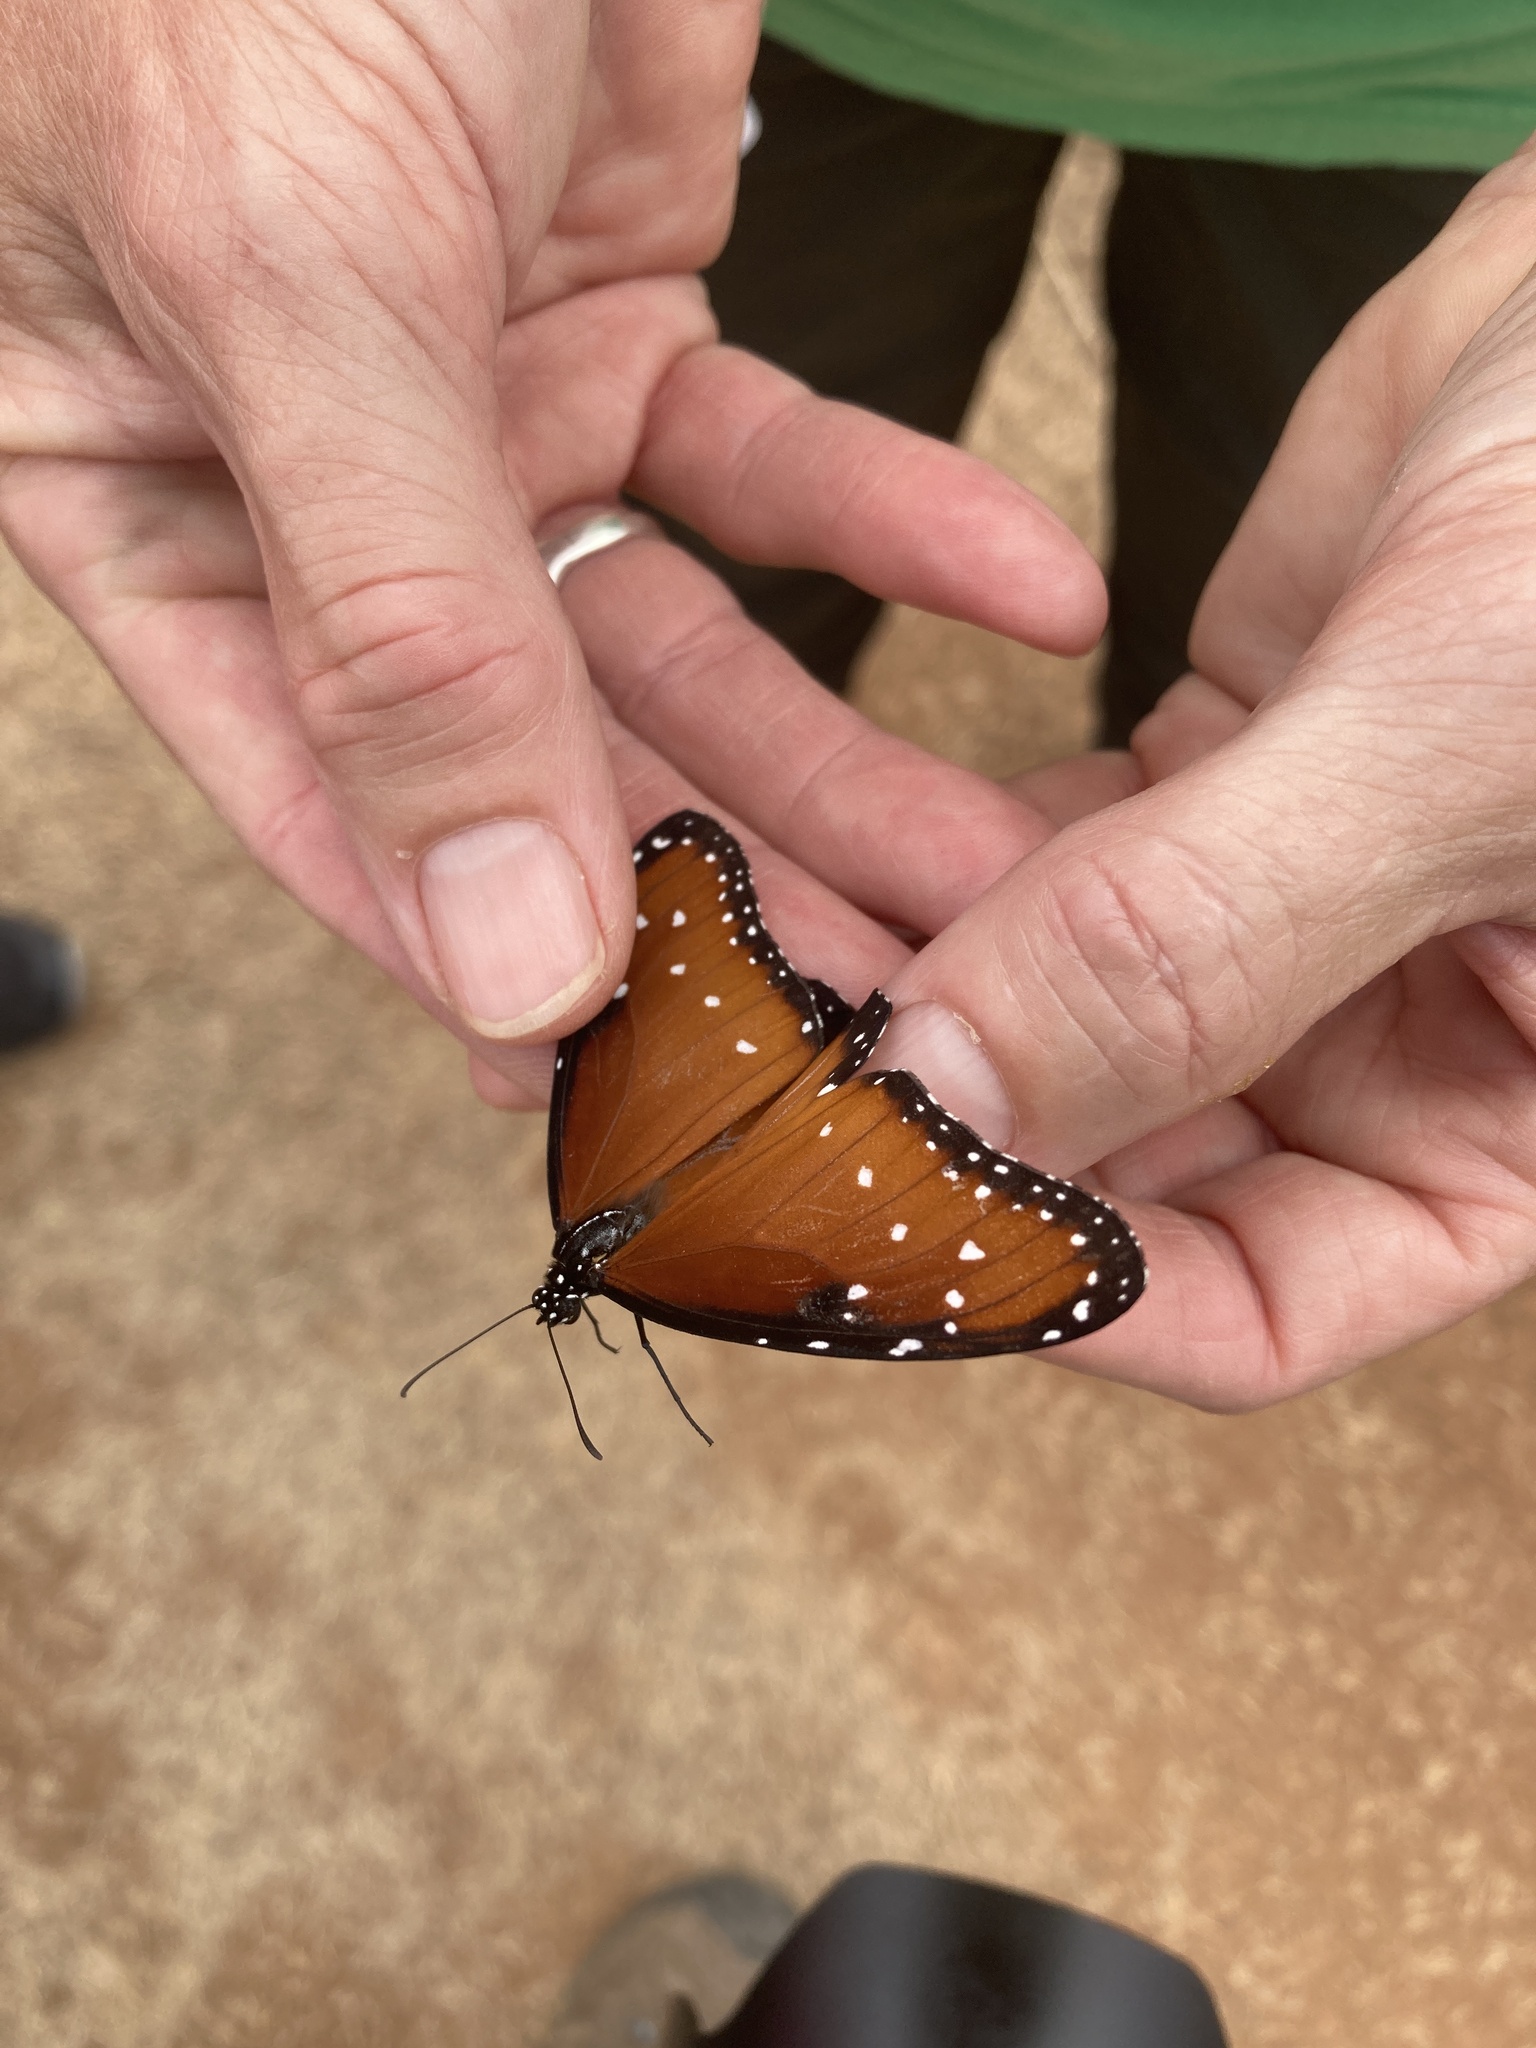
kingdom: Animalia
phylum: Arthropoda
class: Insecta
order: Lepidoptera
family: Nymphalidae
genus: Danaus
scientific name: Danaus gilippus
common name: Queen
